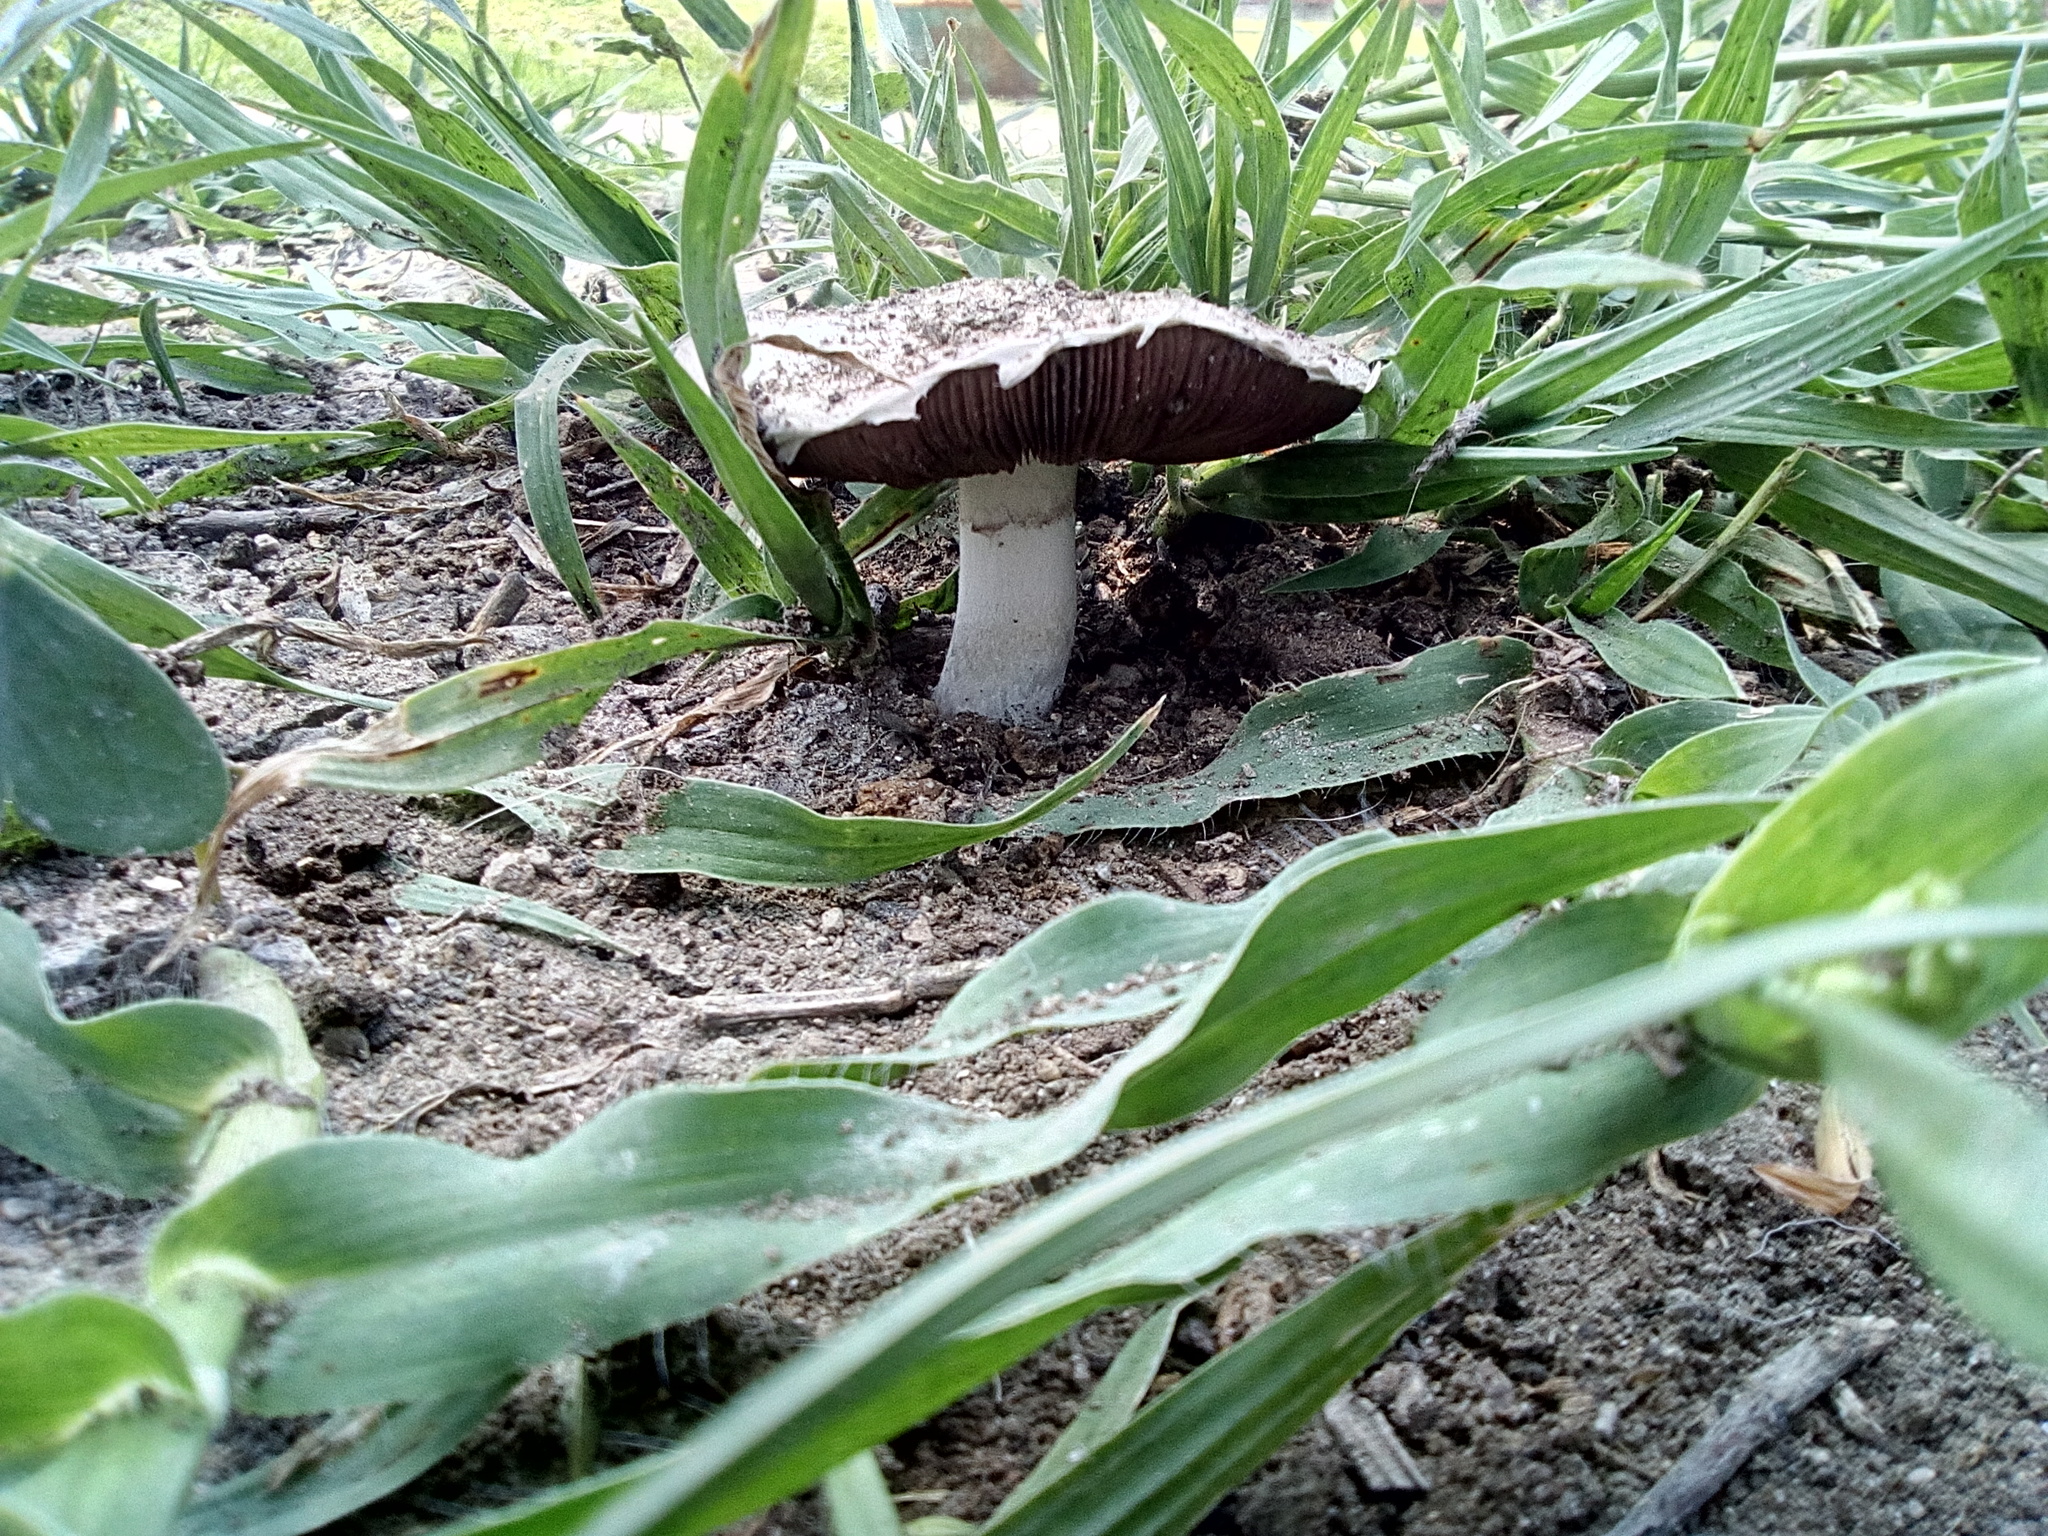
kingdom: Fungi
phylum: Basidiomycota
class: Agaricomycetes
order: Agaricales
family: Agaricaceae
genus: Agaricus
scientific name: Agaricus campestris
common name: Field mushroom
